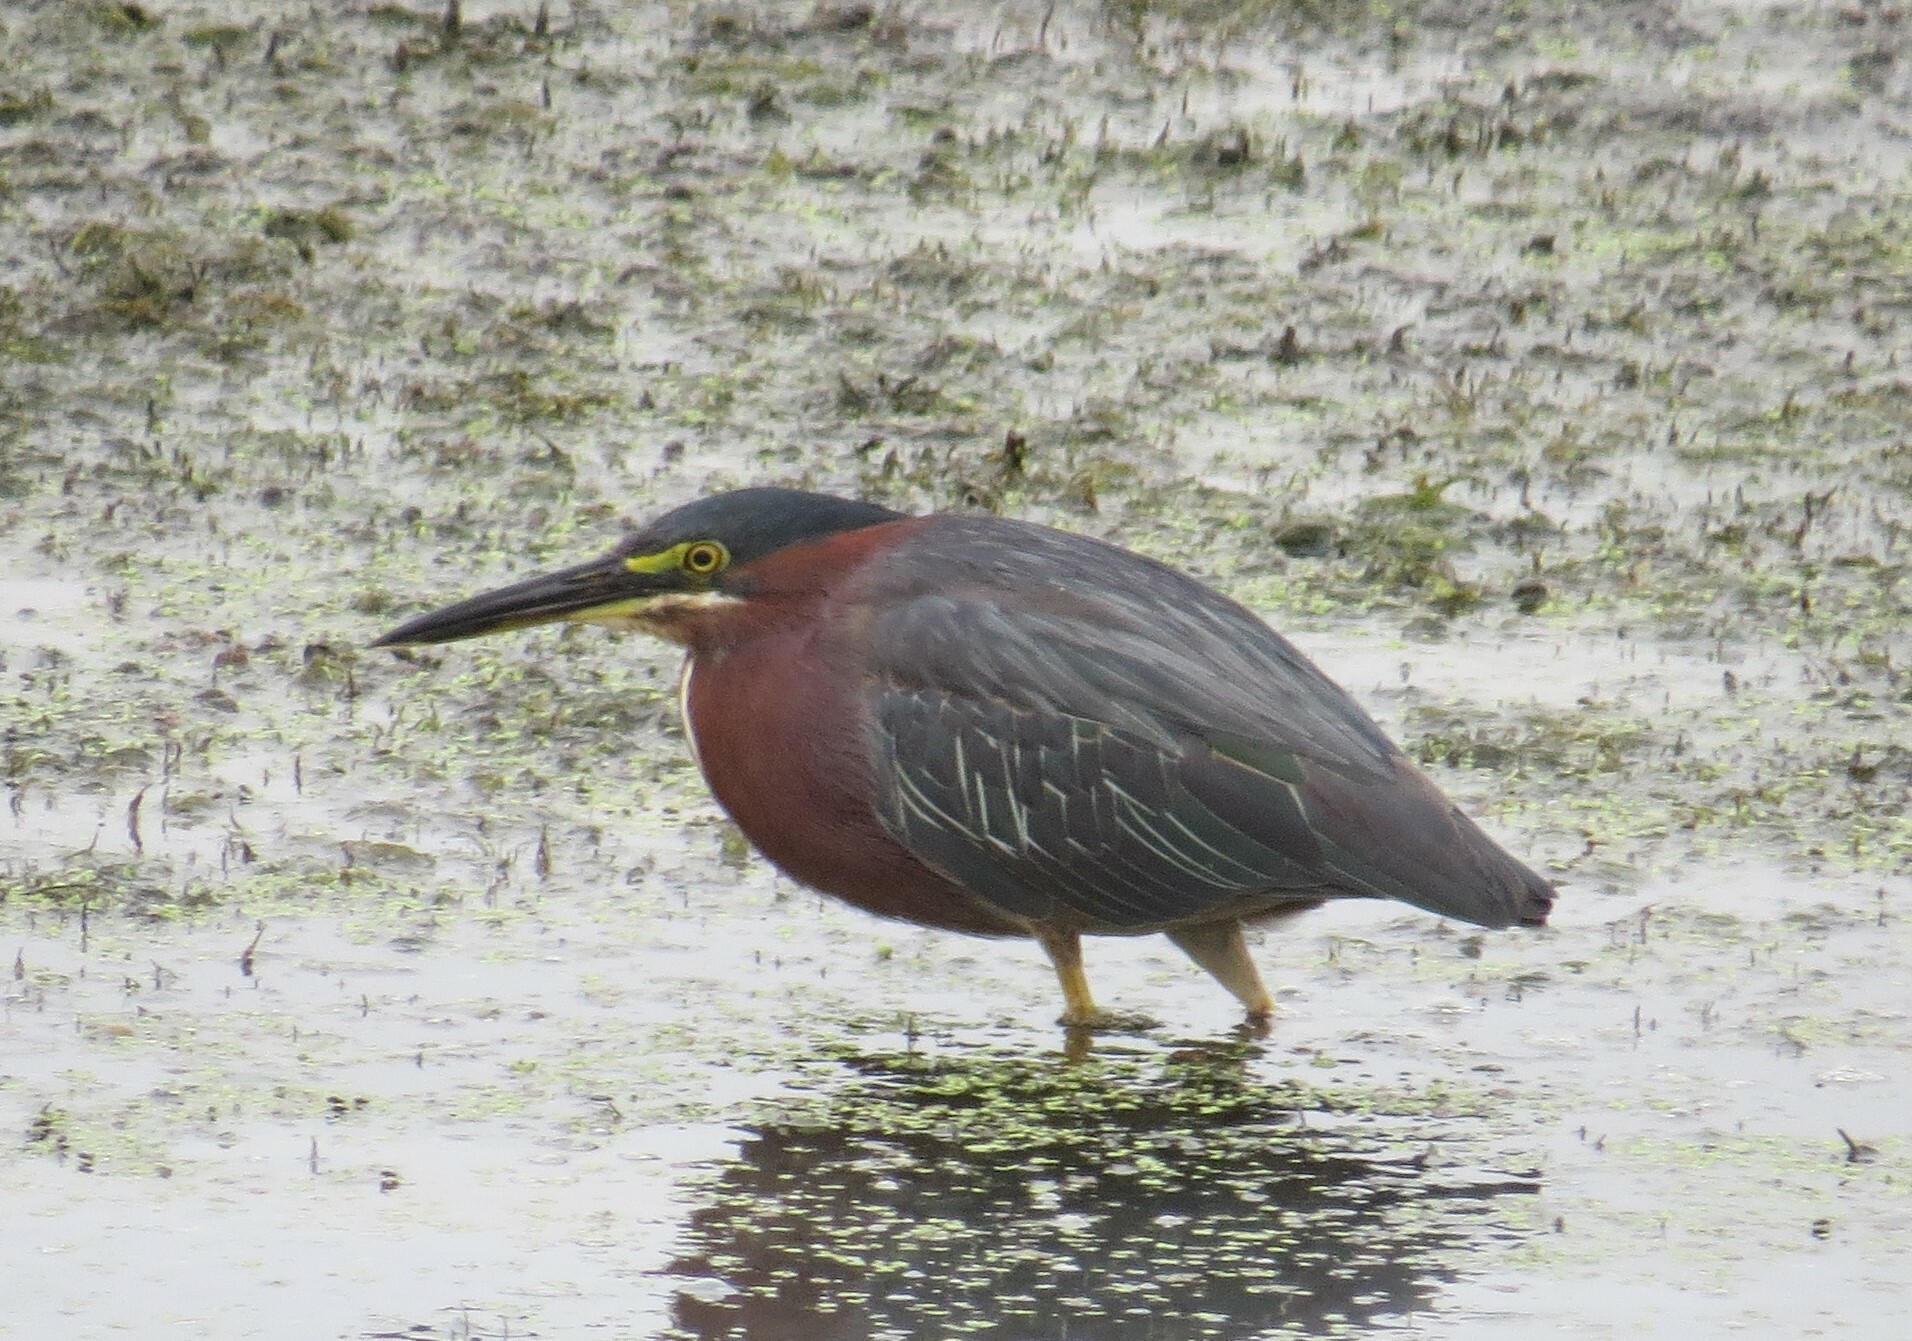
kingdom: Animalia
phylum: Chordata
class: Aves
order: Pelecaniformes
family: Ardeidae
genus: Butorides
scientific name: Butorides virescens
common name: Green heron
